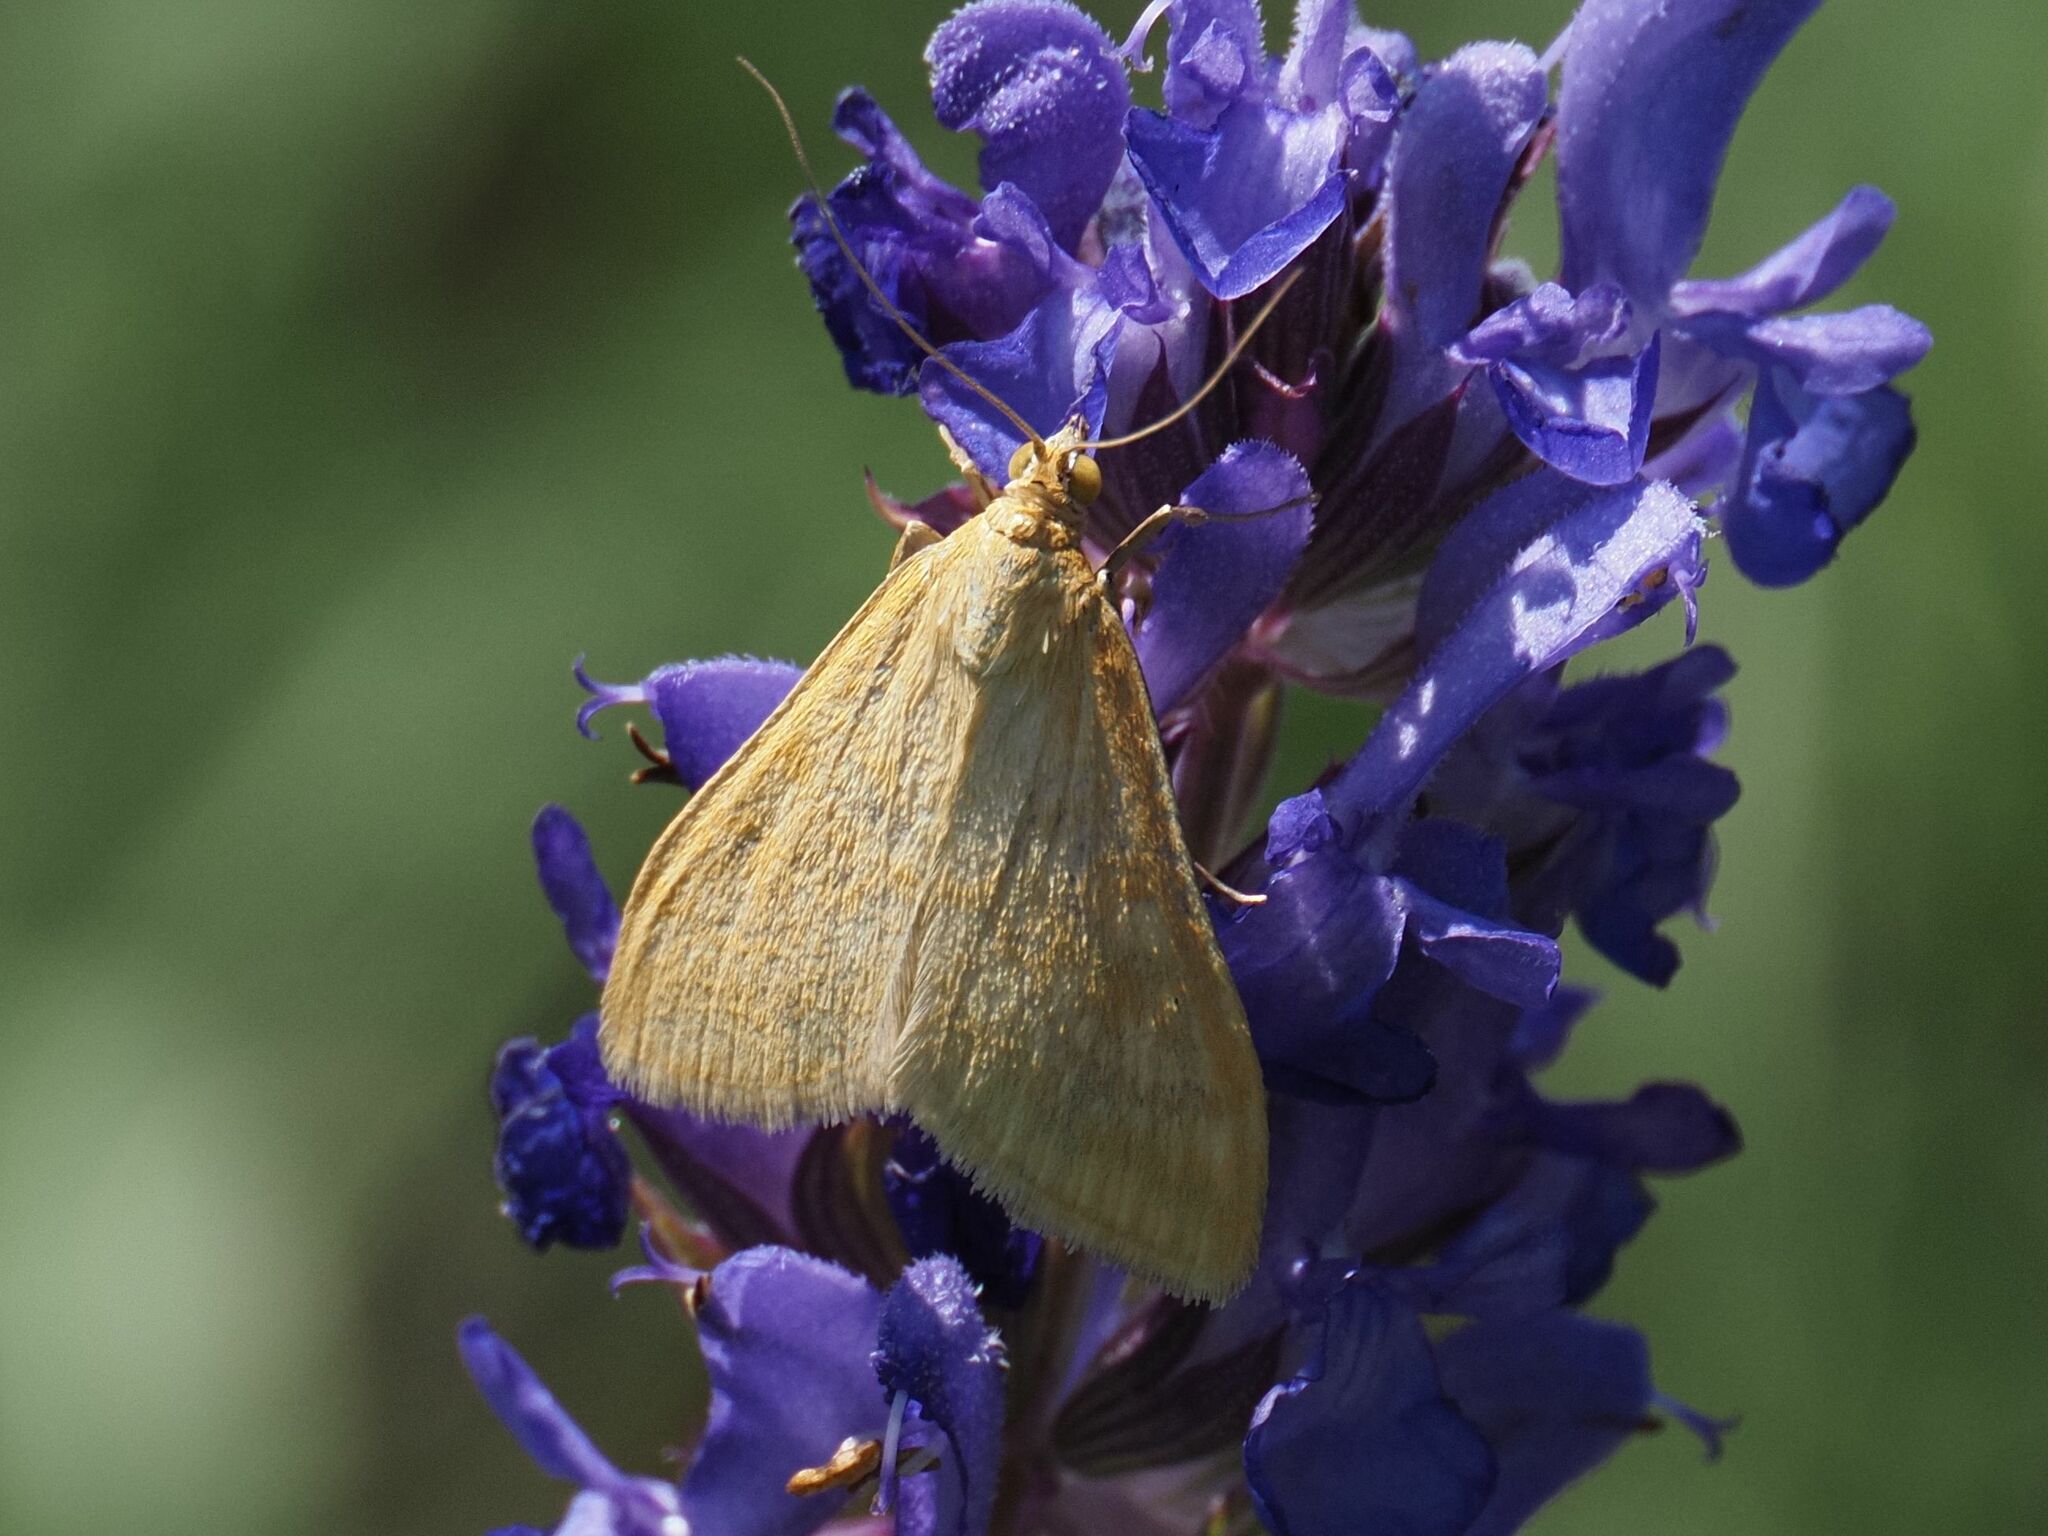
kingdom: Animalia
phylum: Arthropoda
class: Insecta
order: Lepidoptera
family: Crambidae
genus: Sitochroa
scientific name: Sitochroa verticalis
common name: Lesser pearl
